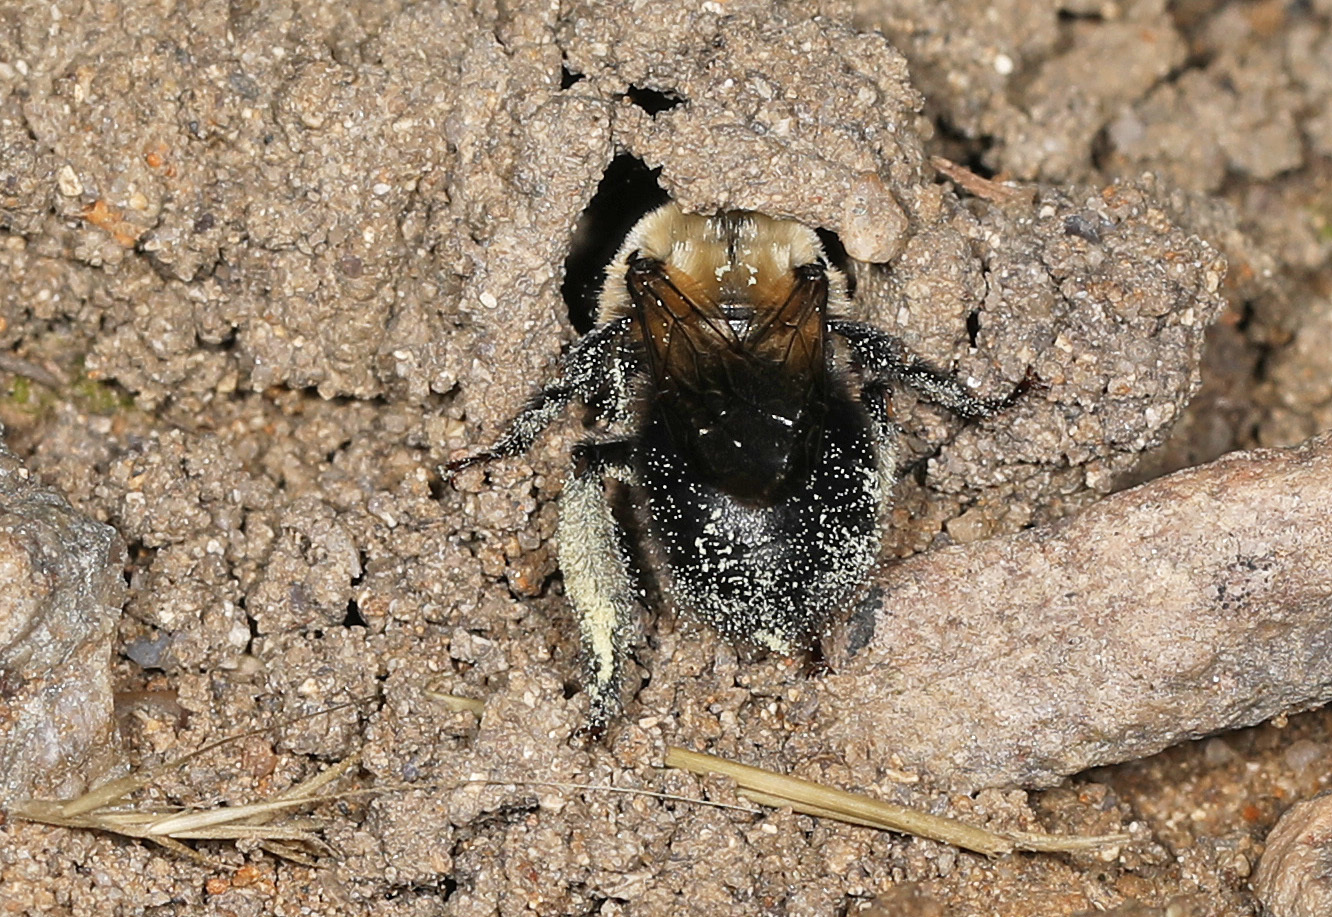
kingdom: Animalia
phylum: Arthropoda
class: Insecta
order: Hymenoptera
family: Apidae
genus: Anthophora
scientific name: Anthophora abrupta
